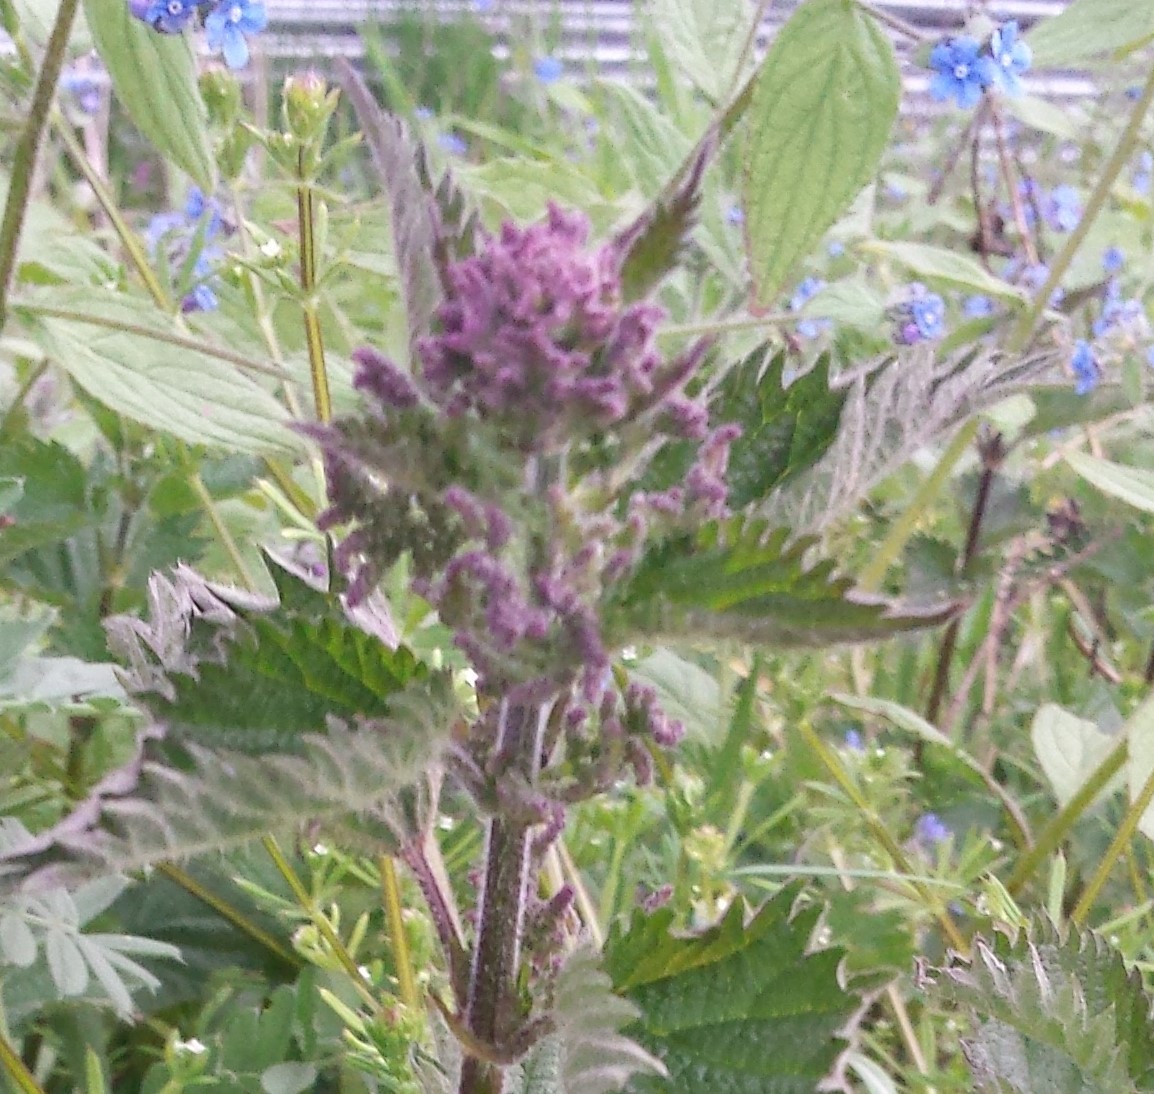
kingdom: Plantae
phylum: Tracheophyta
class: Magnoliopsida
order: Rosales
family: Urticaceae
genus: Urtica
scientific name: Urtica dioica
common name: Common nettle
